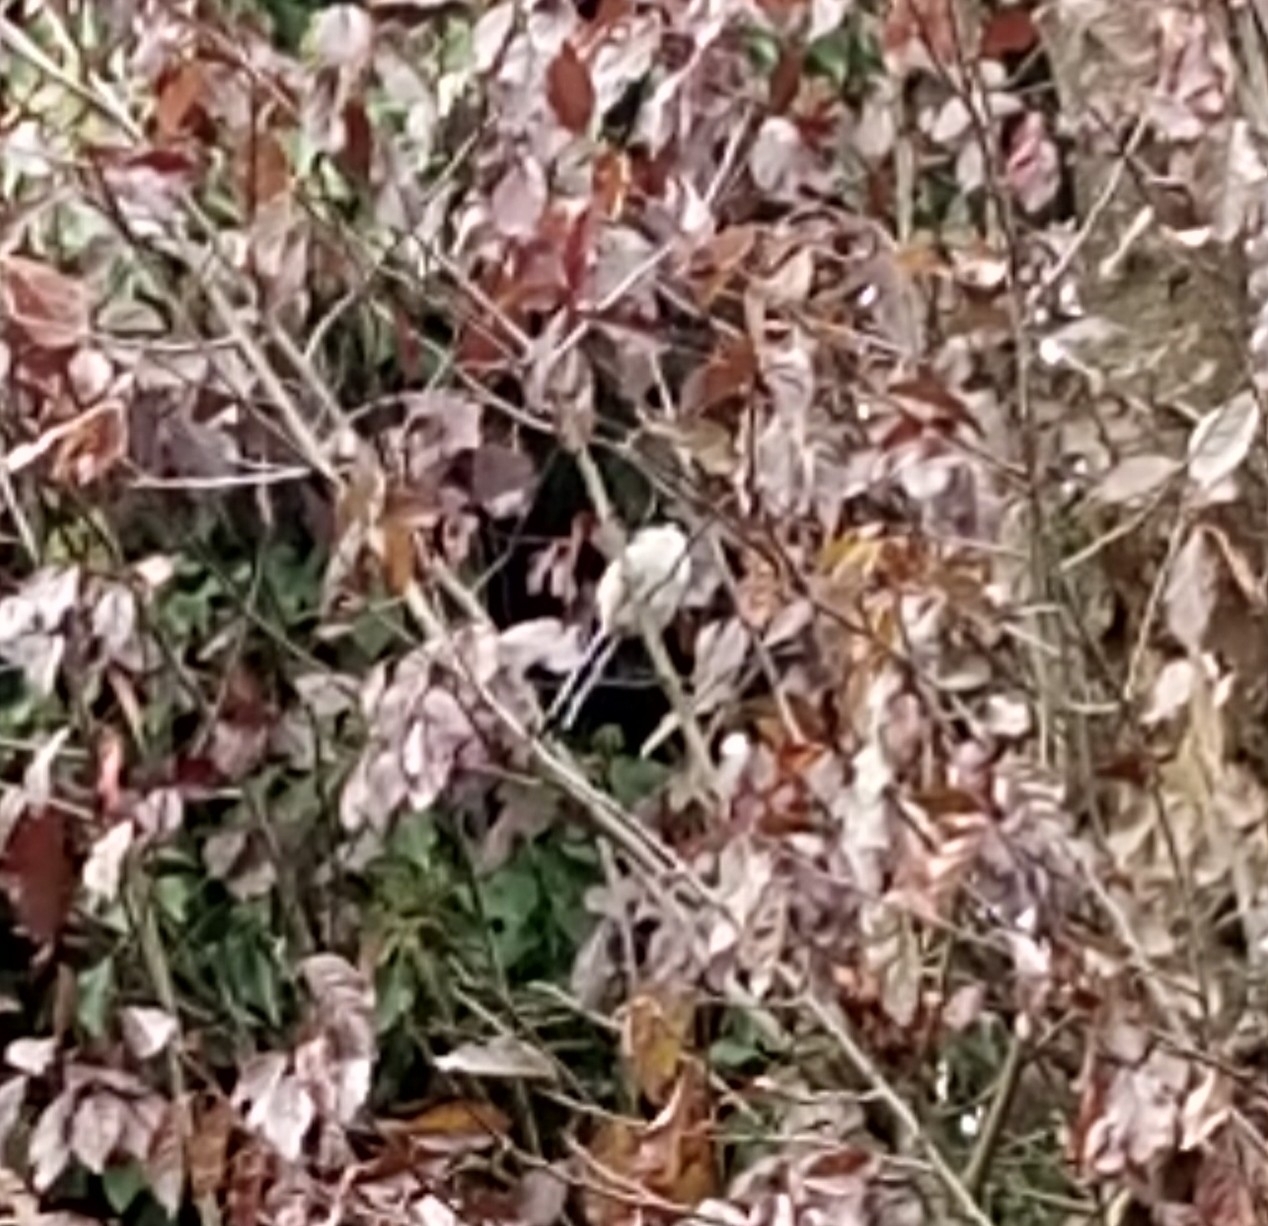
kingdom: Animalia
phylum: Chordata
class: Aves
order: Passeriformes
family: Aegithalidae
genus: Aegithalos
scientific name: Aegithalos caudatus
